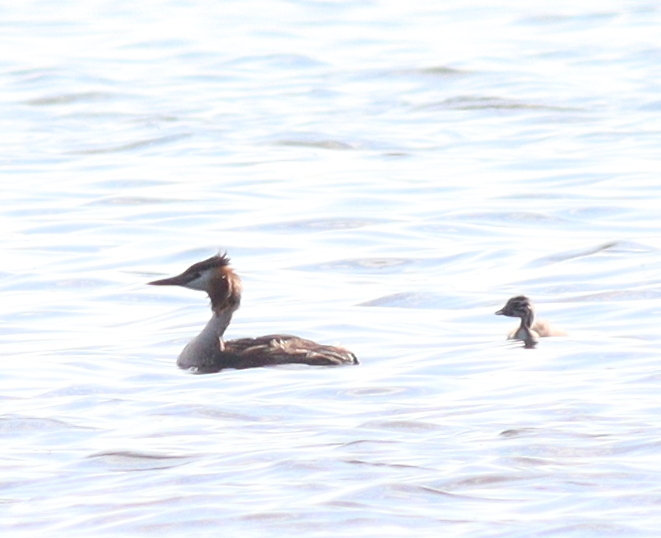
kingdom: Animalia
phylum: Chordata
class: Aves
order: Podicipediformes
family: Podicipedidae
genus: Podiceps
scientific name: Podiceps cristatus
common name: Great crested grebe
